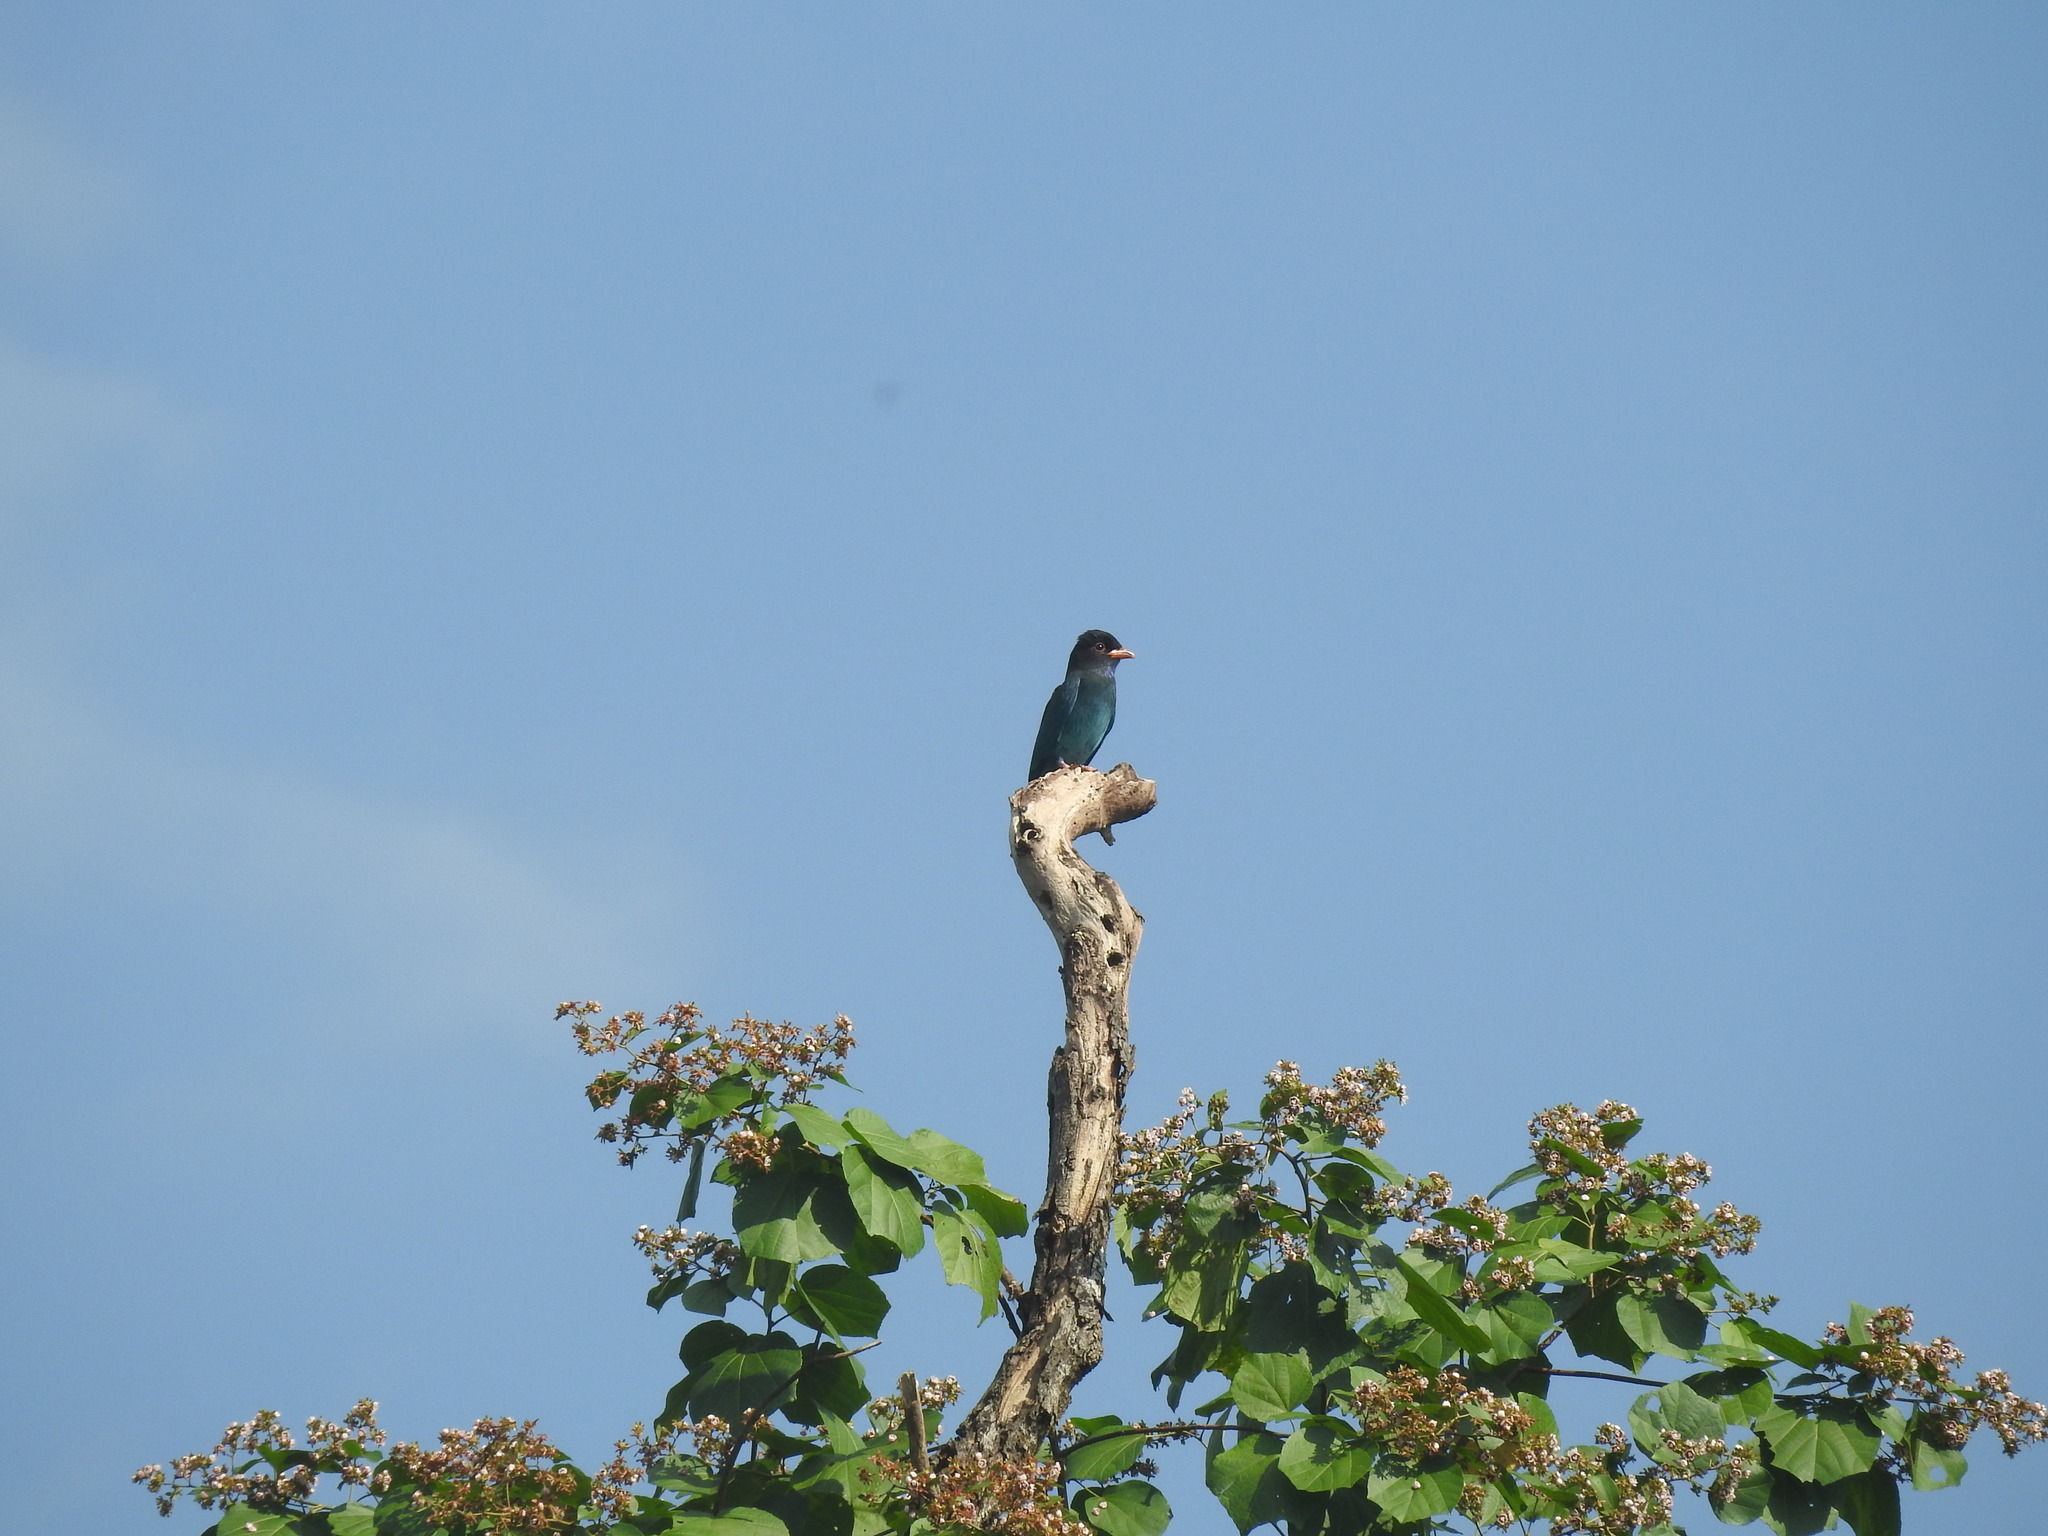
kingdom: Animalia
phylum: Chordata
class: Aves
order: Coraciiformes
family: Coraciidae
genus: Eurystomus
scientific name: Eurystomus orientalis
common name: Oriental dollarbird
